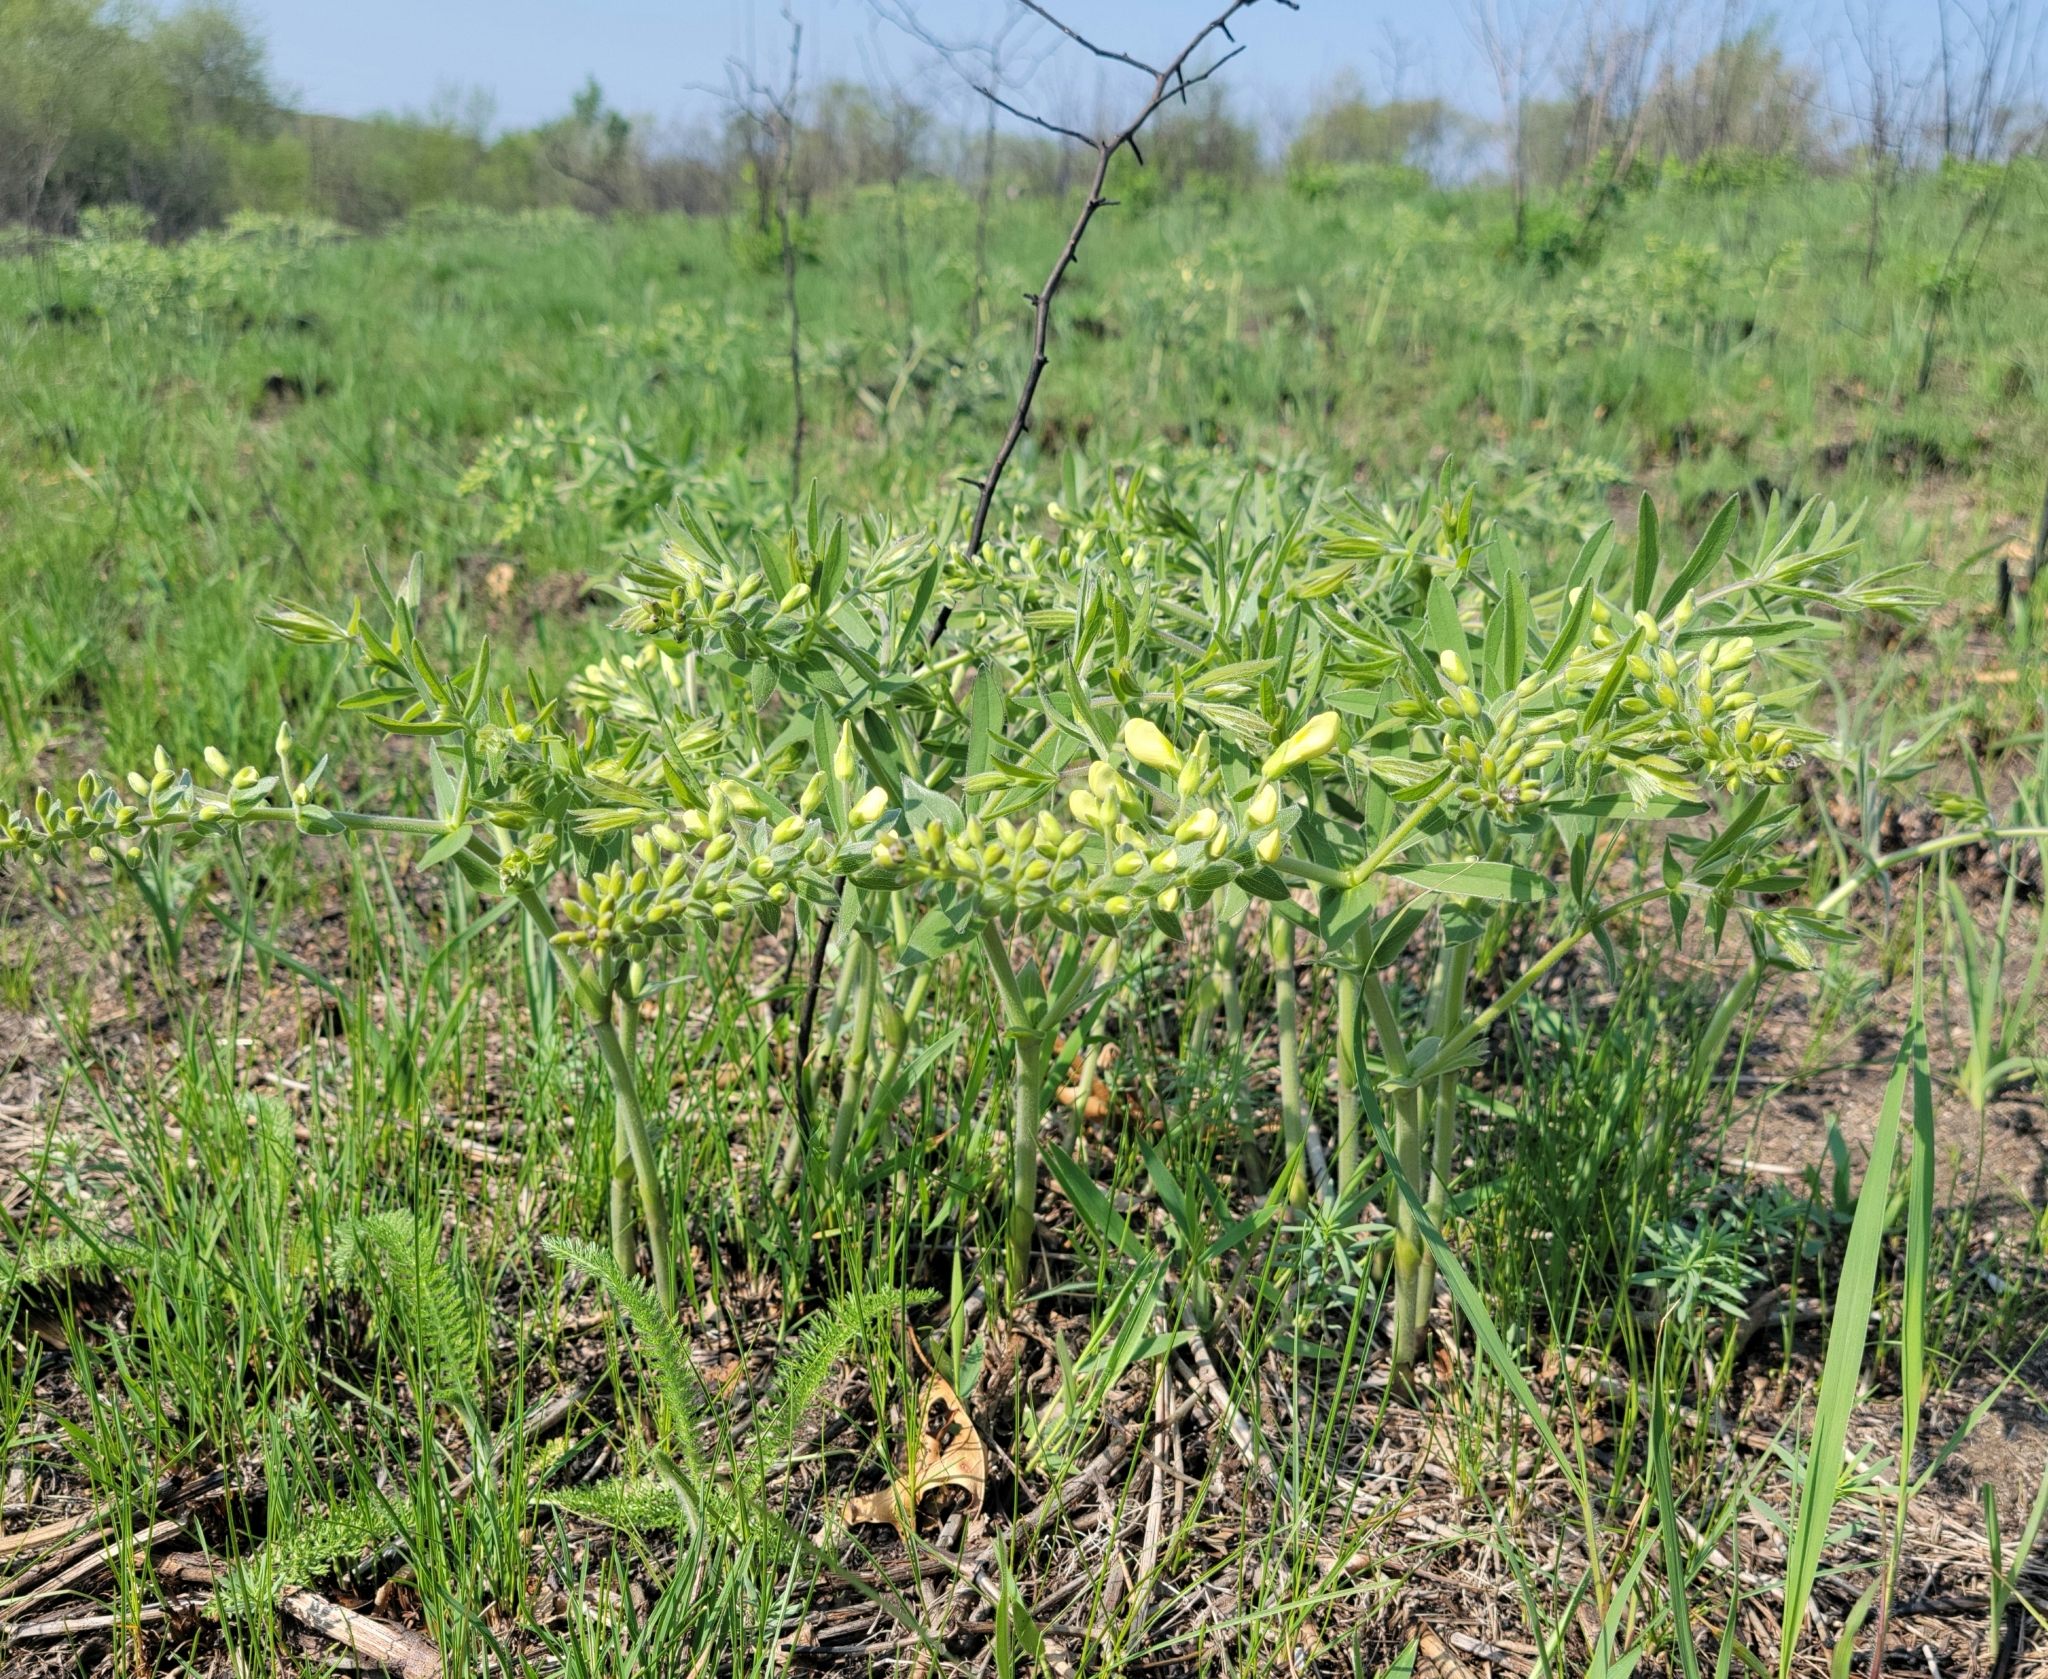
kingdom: Plantae
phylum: Tracheophyta
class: Magnoliopsida
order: Fabales
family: Fabaceae
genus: Baptisia
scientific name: Baptisia bracteata
